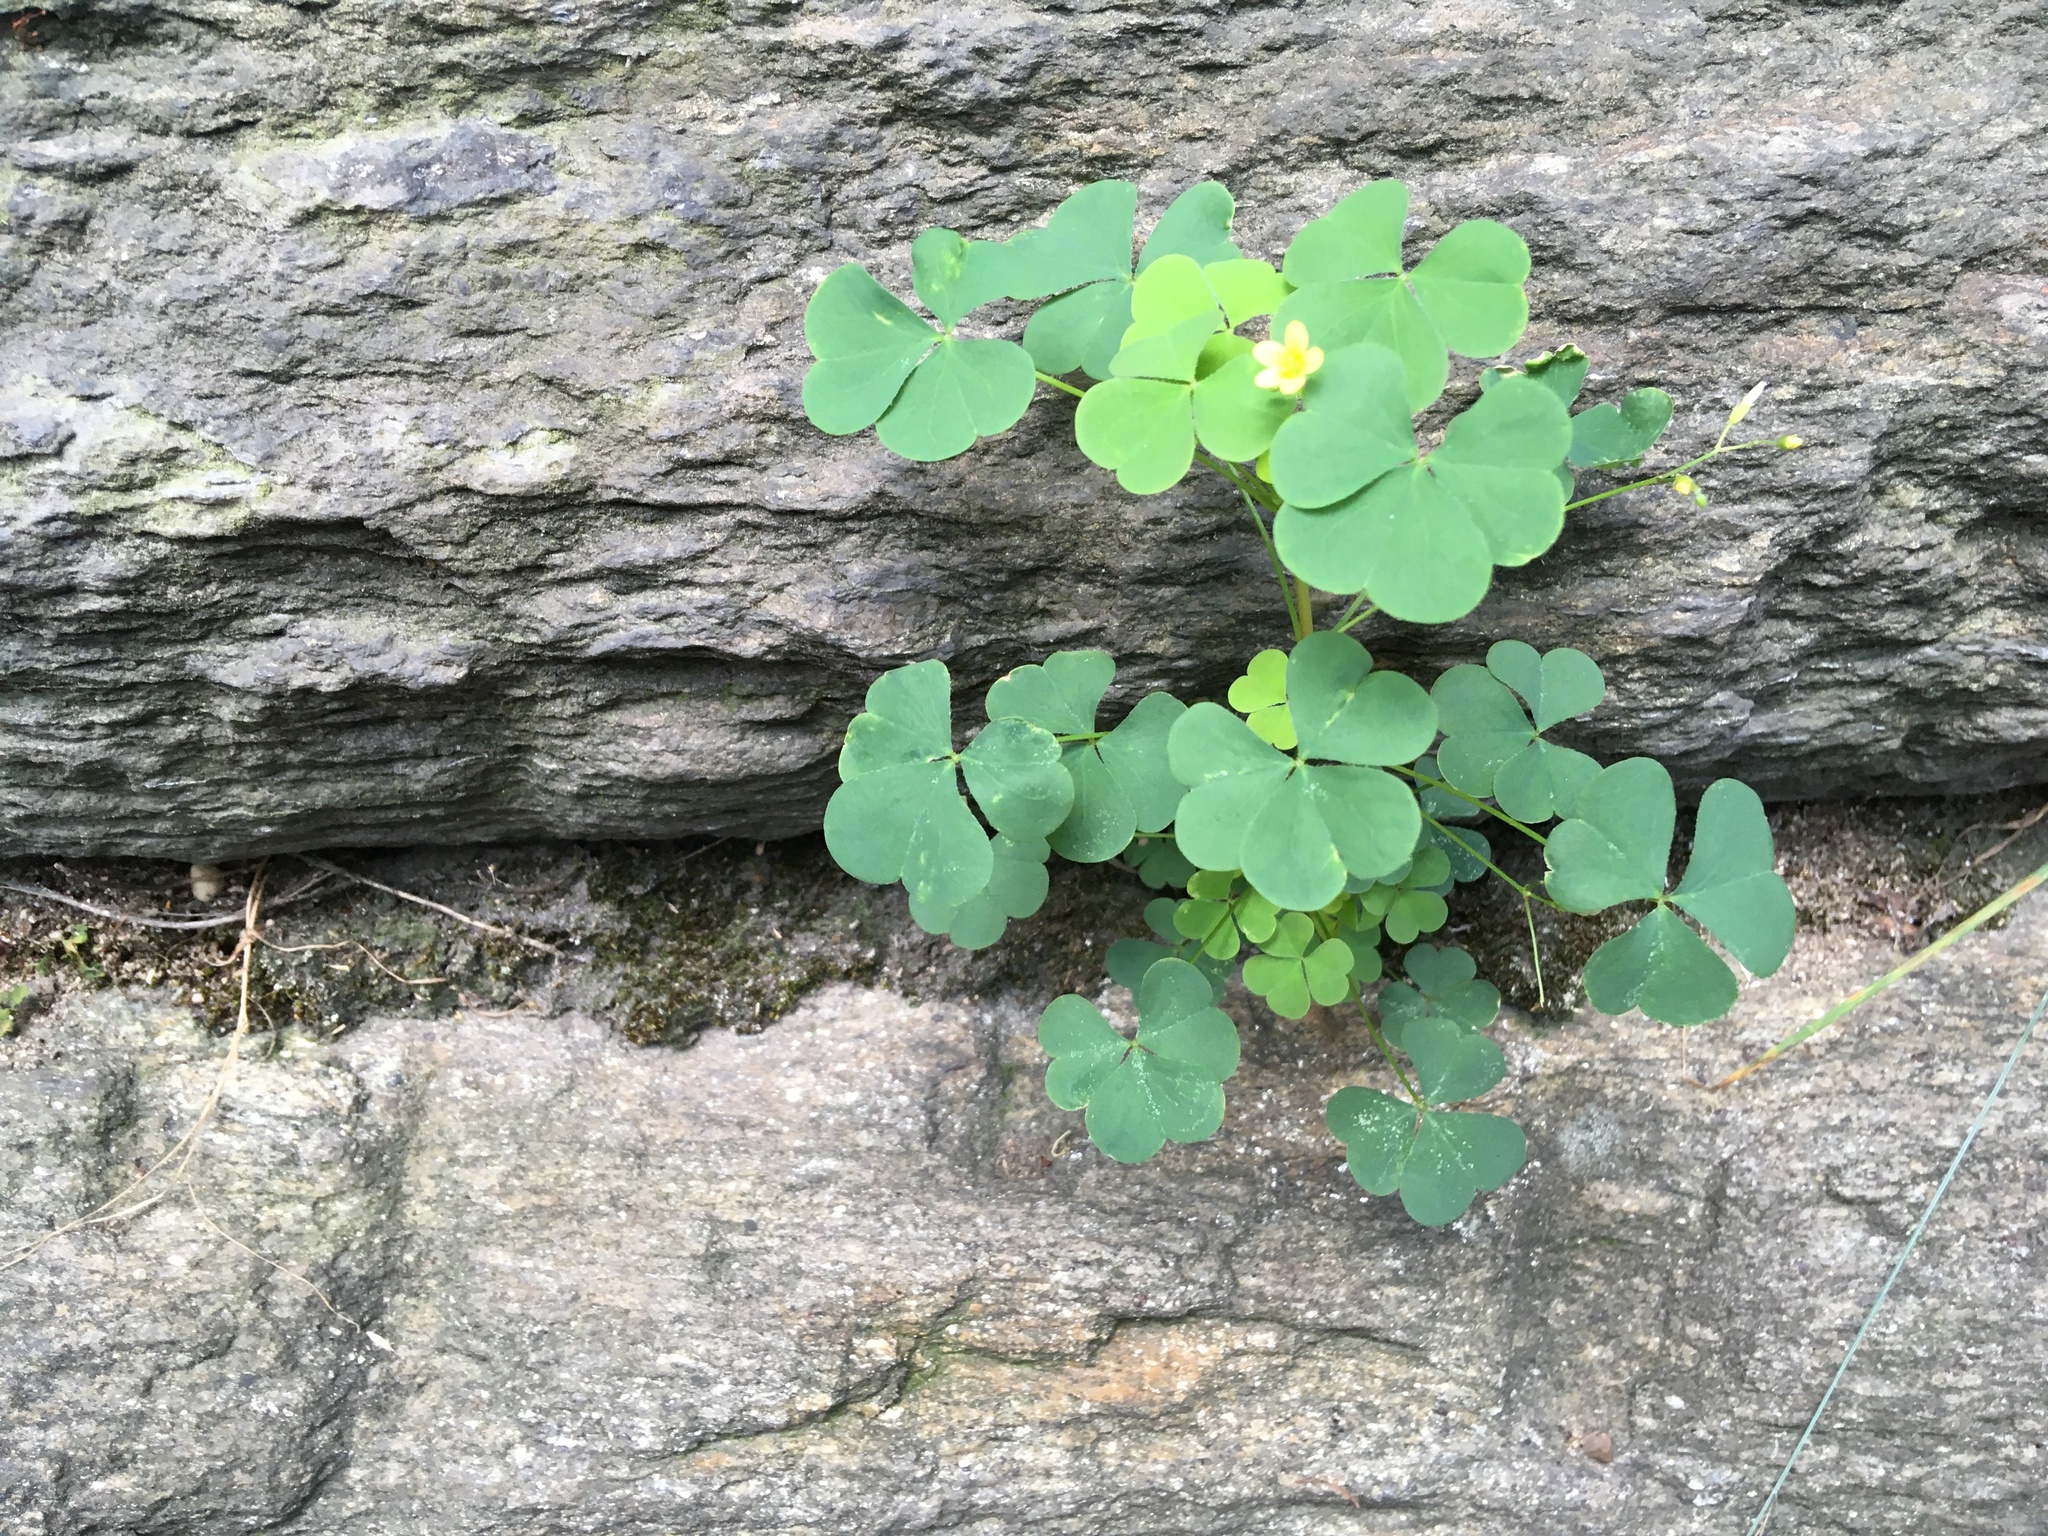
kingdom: Plantae
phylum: Tracheophyta
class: Magnoliopsida
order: Oxalidales
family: Oxalidaceae
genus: Oxalis
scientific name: Oxalis corniculata
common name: Procumbent yellow-sorrel
